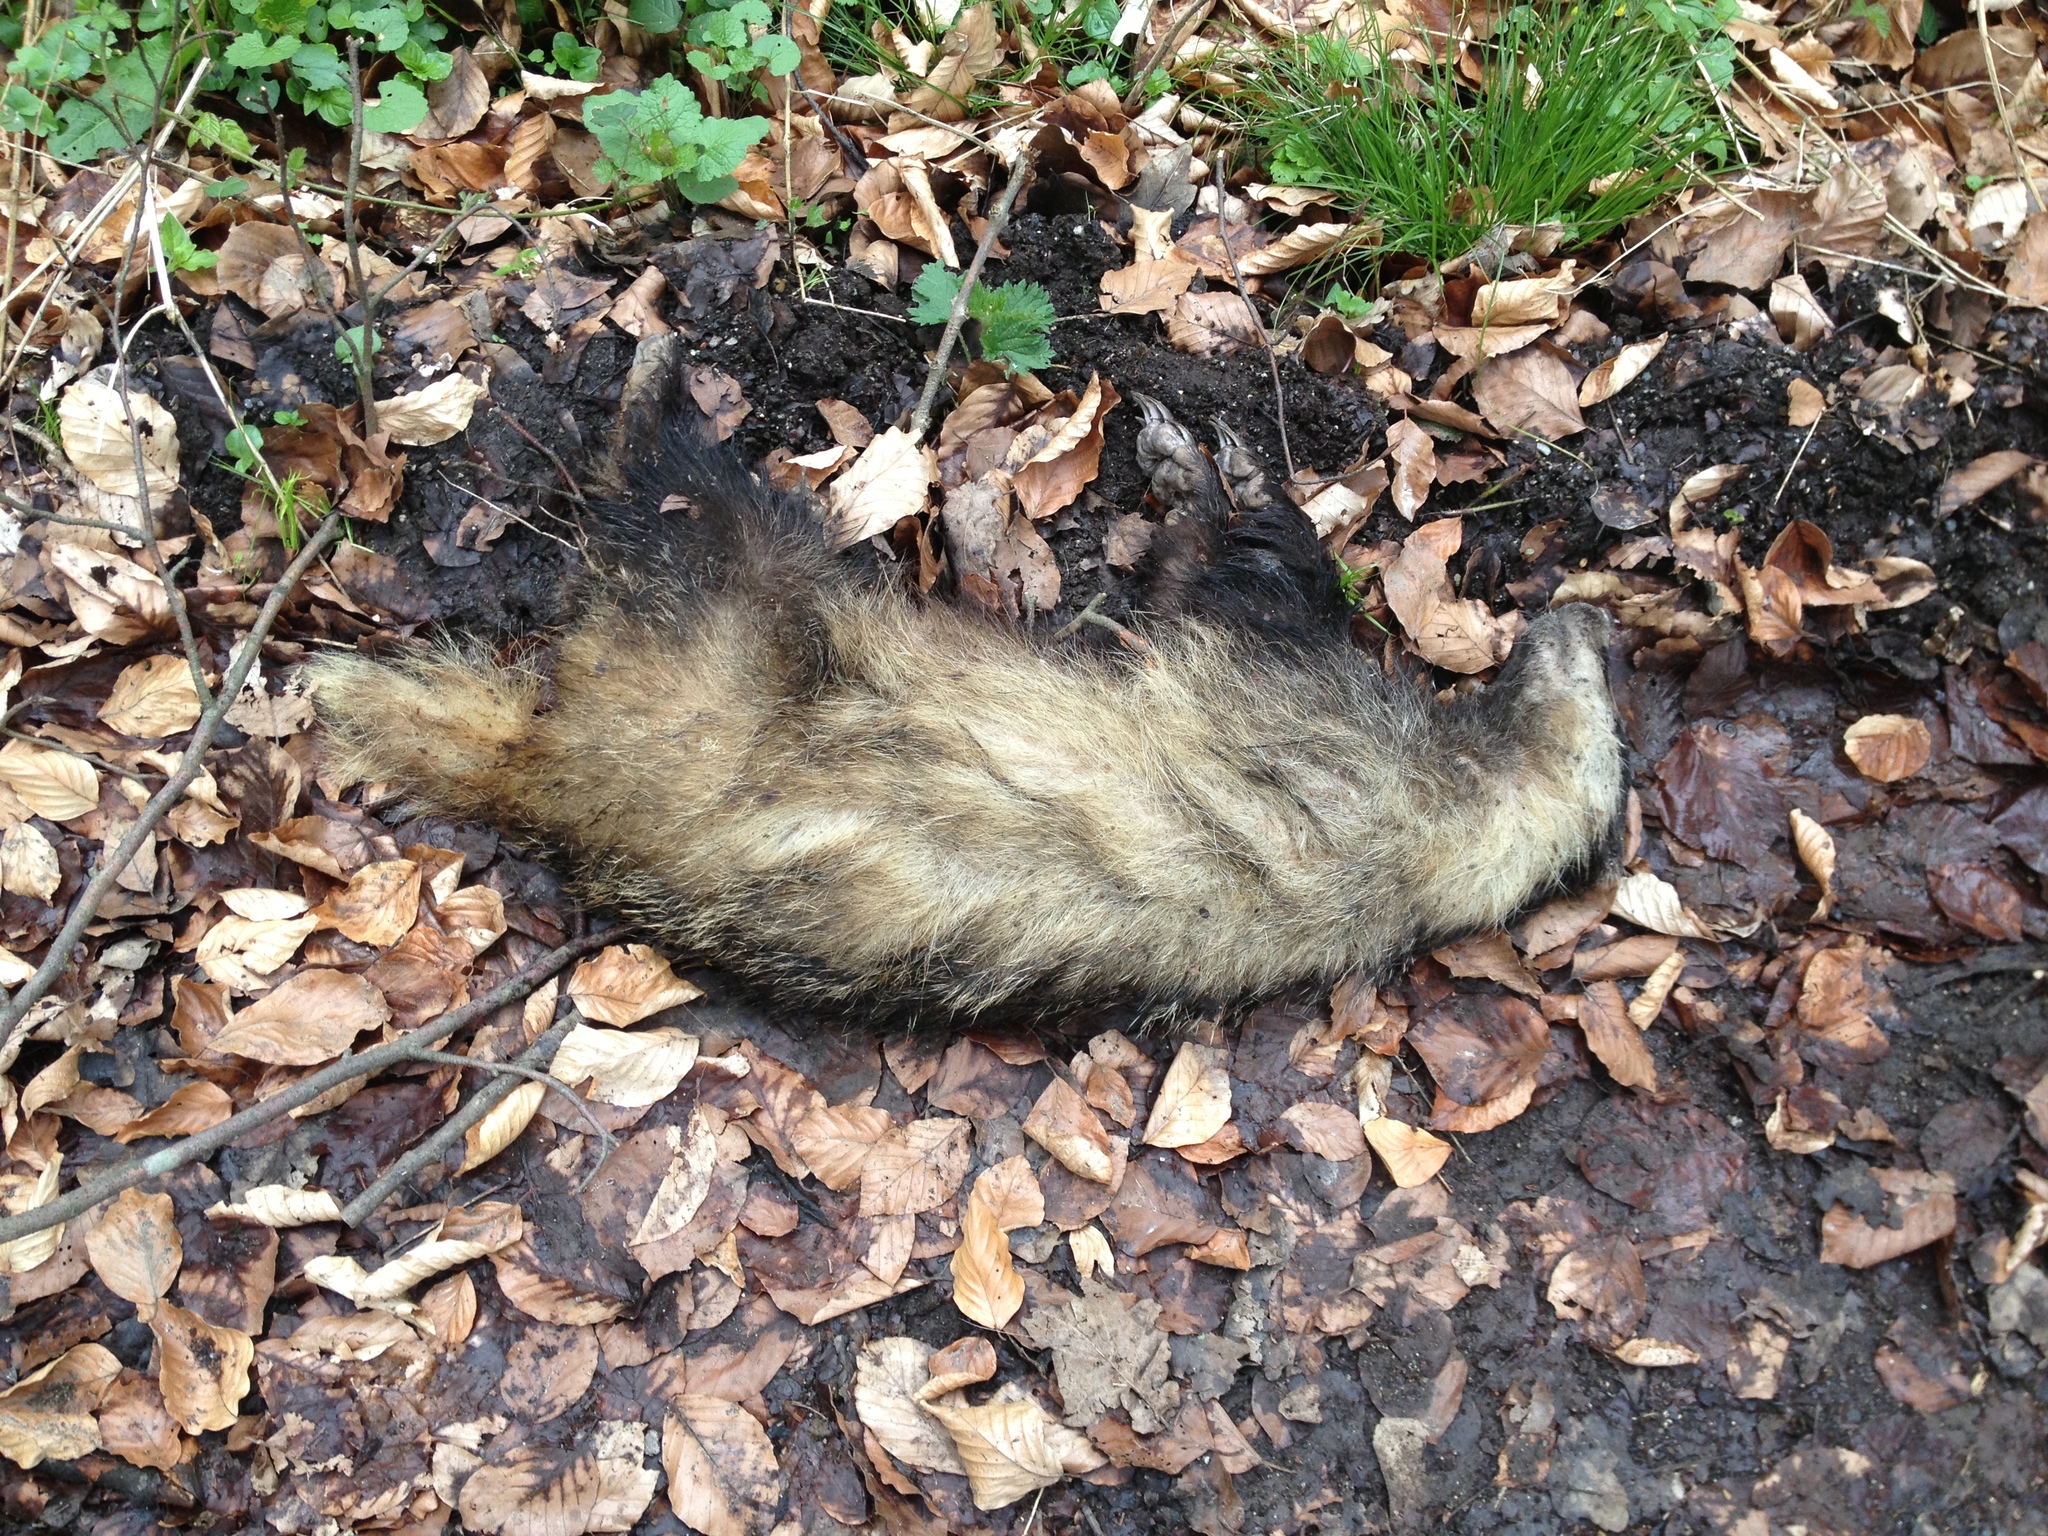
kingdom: Animalia
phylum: Chordata
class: Mammalia
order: Carnivora
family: Mustelidae
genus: Meles
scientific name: Meles meles
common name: Eurasian badger
